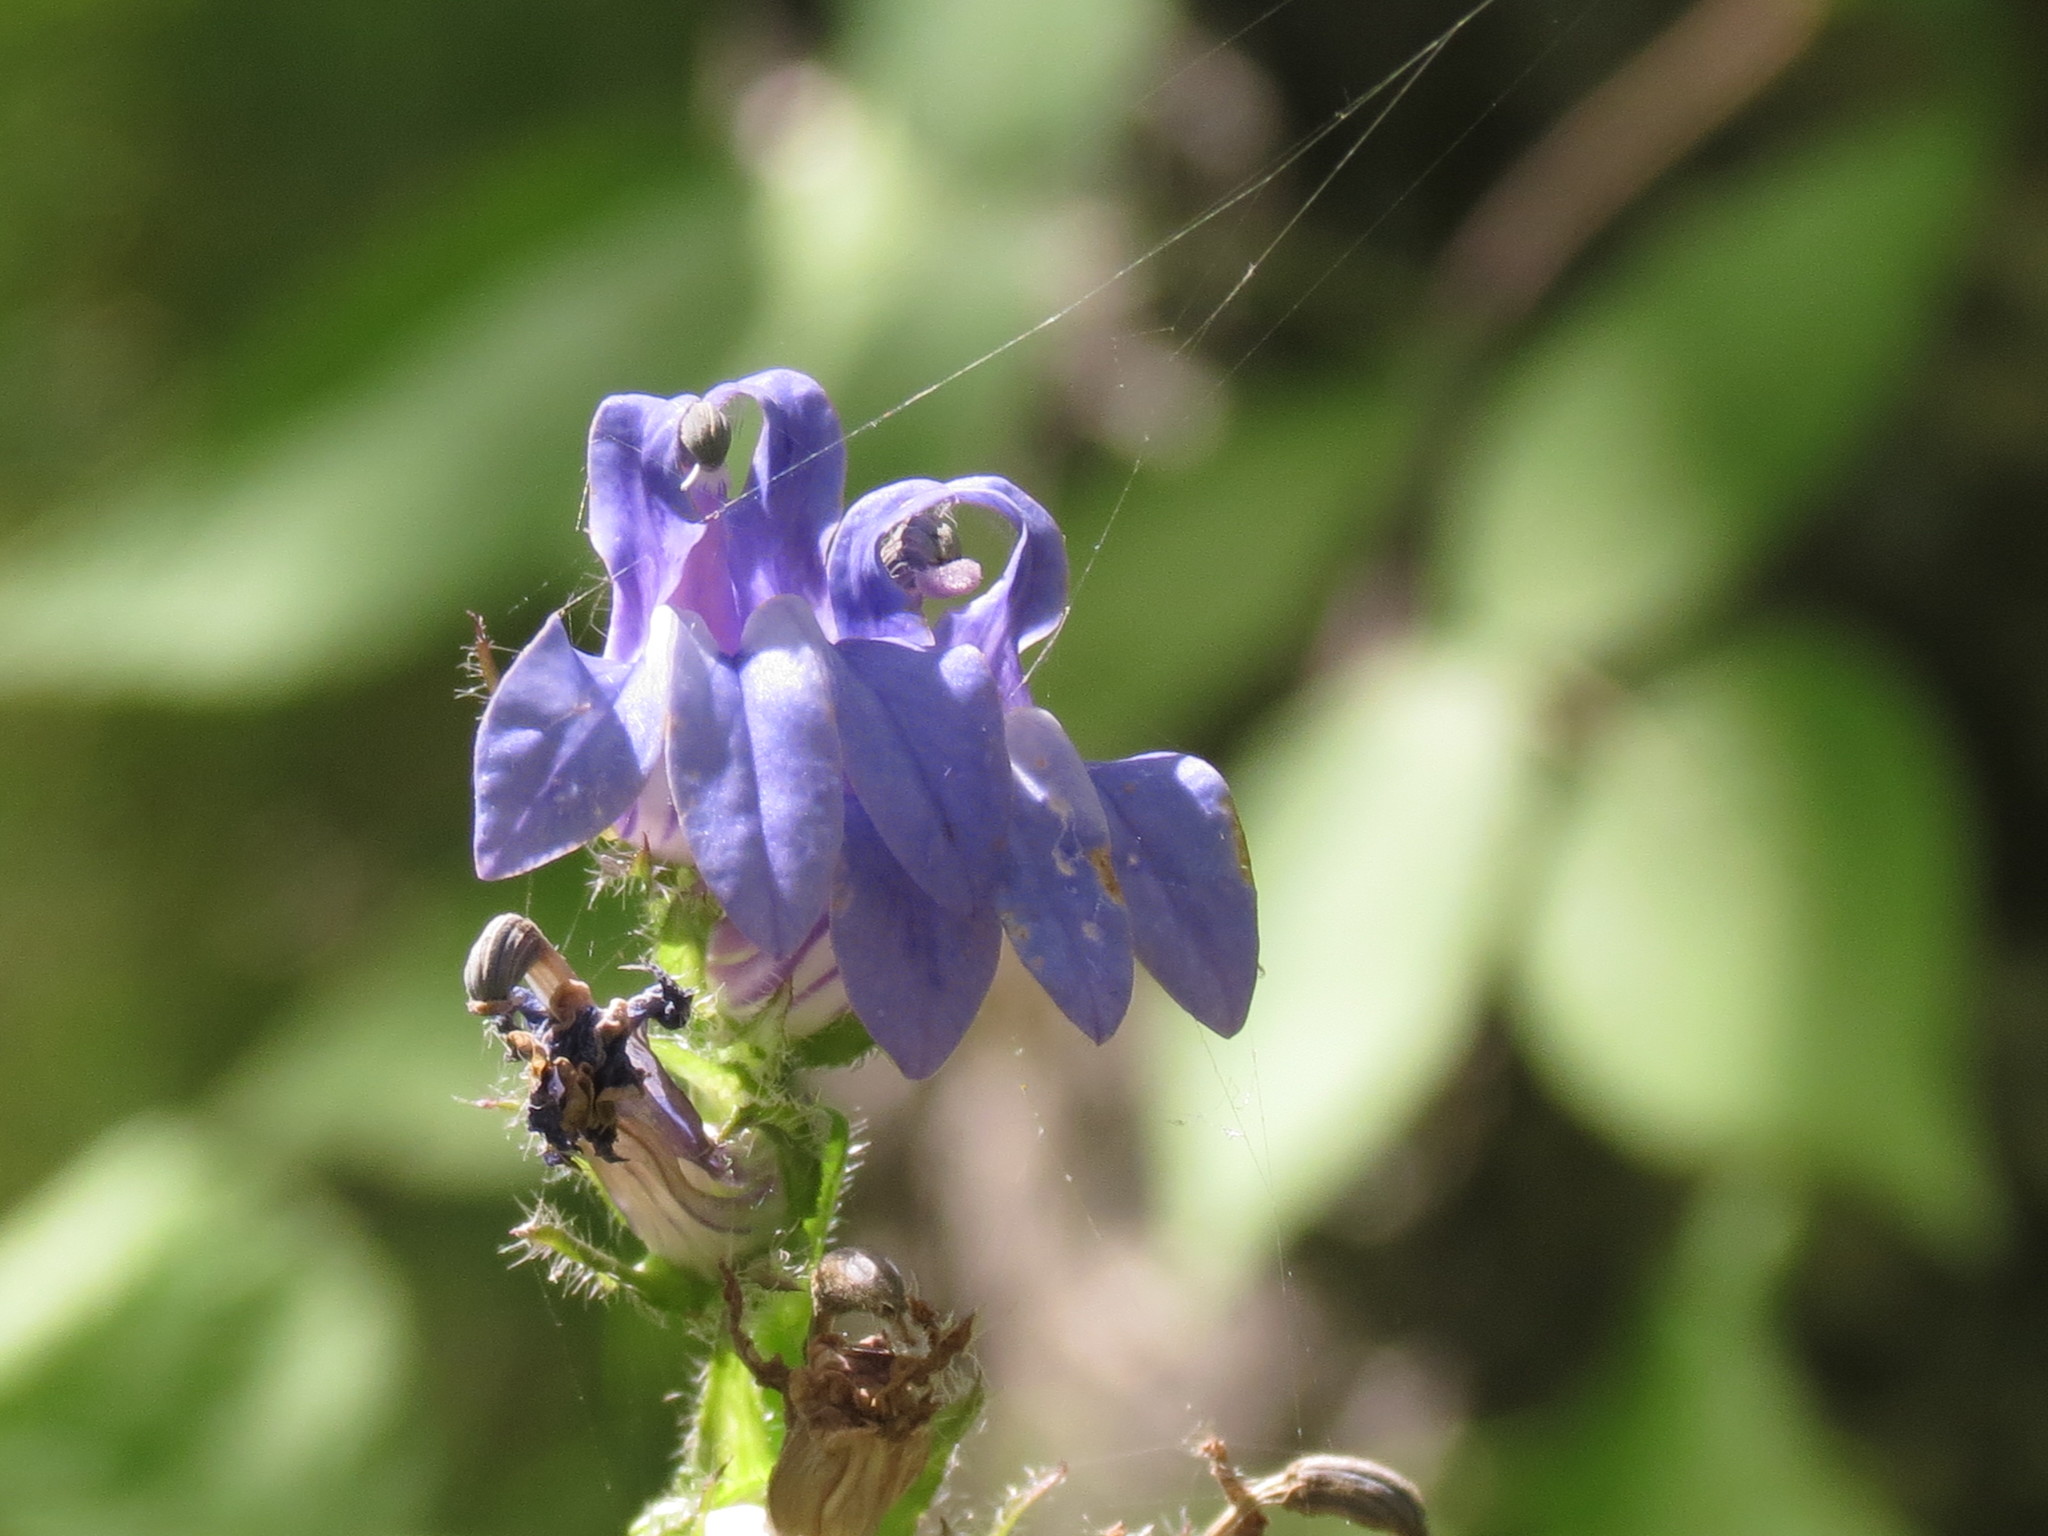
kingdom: Plantae
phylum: Tracheophyta
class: Magnoliopsida
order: Asterales
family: Campanulaceae
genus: Lobelia
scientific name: Lobelia siphilitica
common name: Great lobelia
